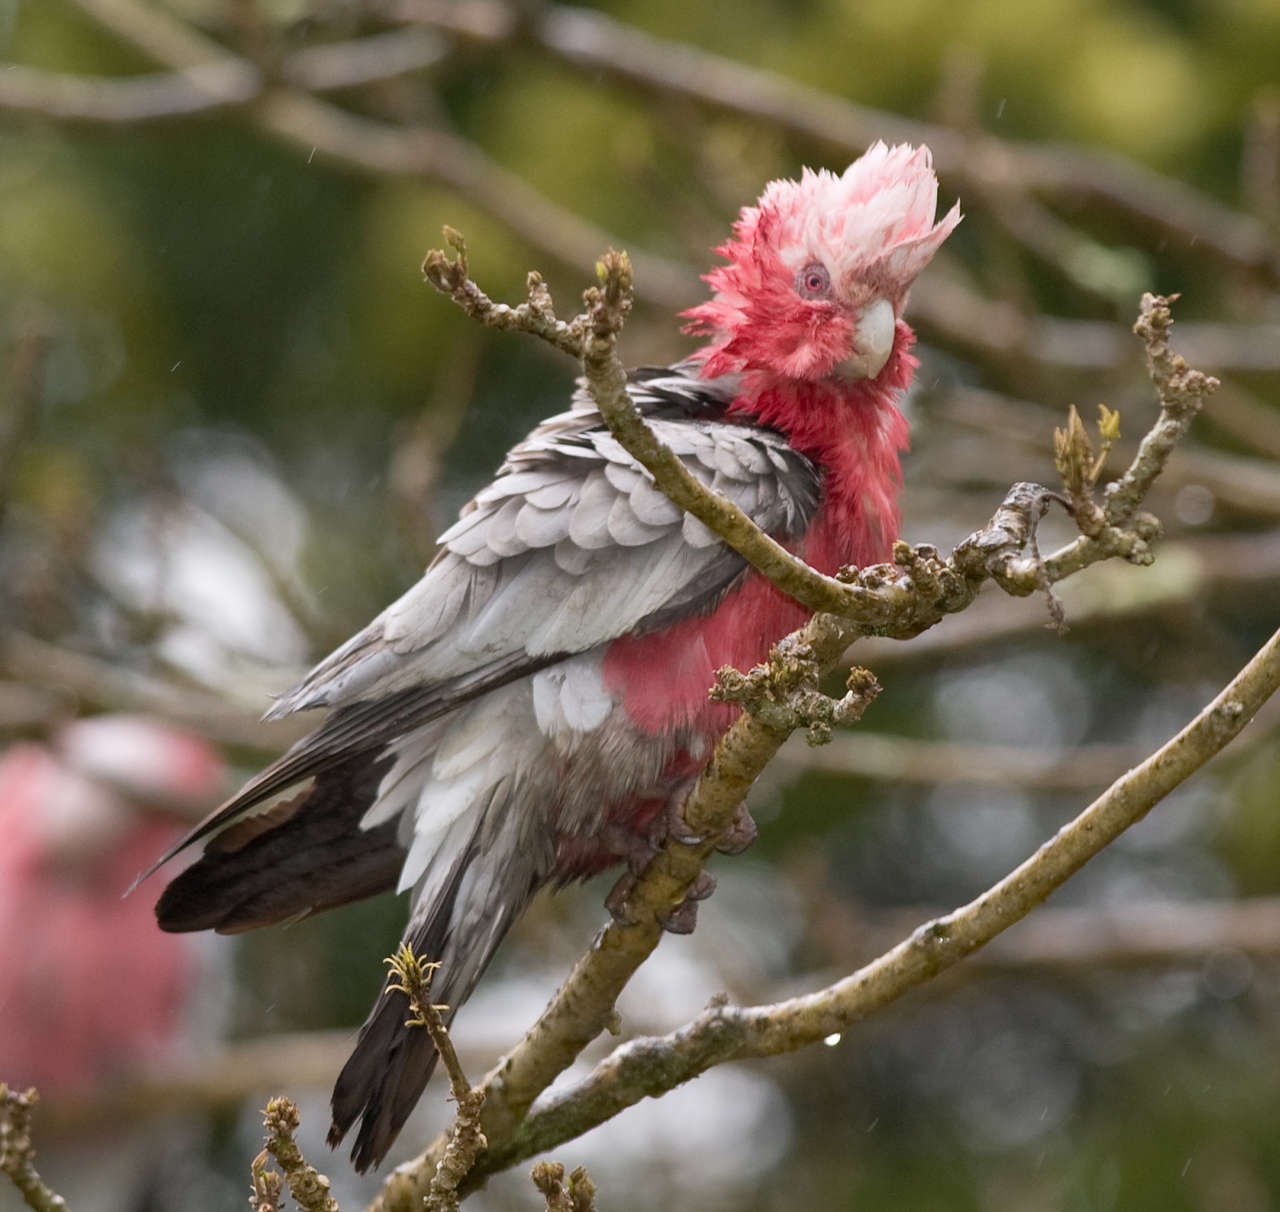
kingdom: Animalia
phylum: Chordata
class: Aves
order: Psittaciformes
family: Psittacidae
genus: Eolophus
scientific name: Eolophus roseicapilla
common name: Galah
